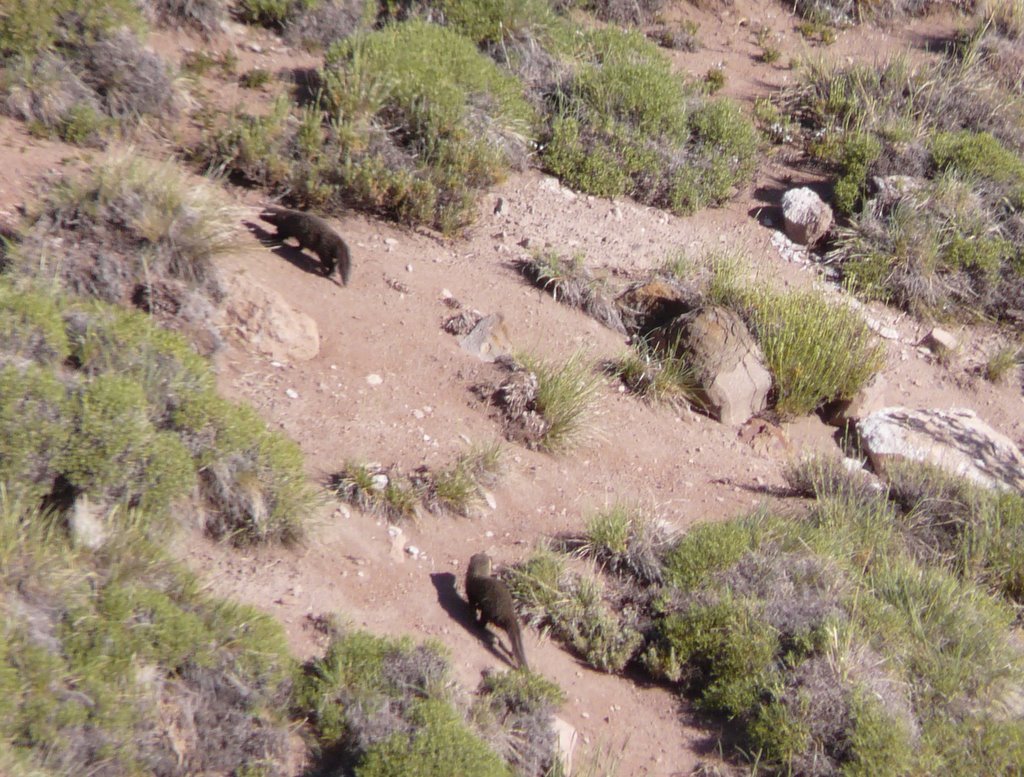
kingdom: Animalia
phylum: Chordata
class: Mammalia
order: Carnivora
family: Mustelidae
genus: Galictis
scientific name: Galictis cuja
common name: Lesser grison
